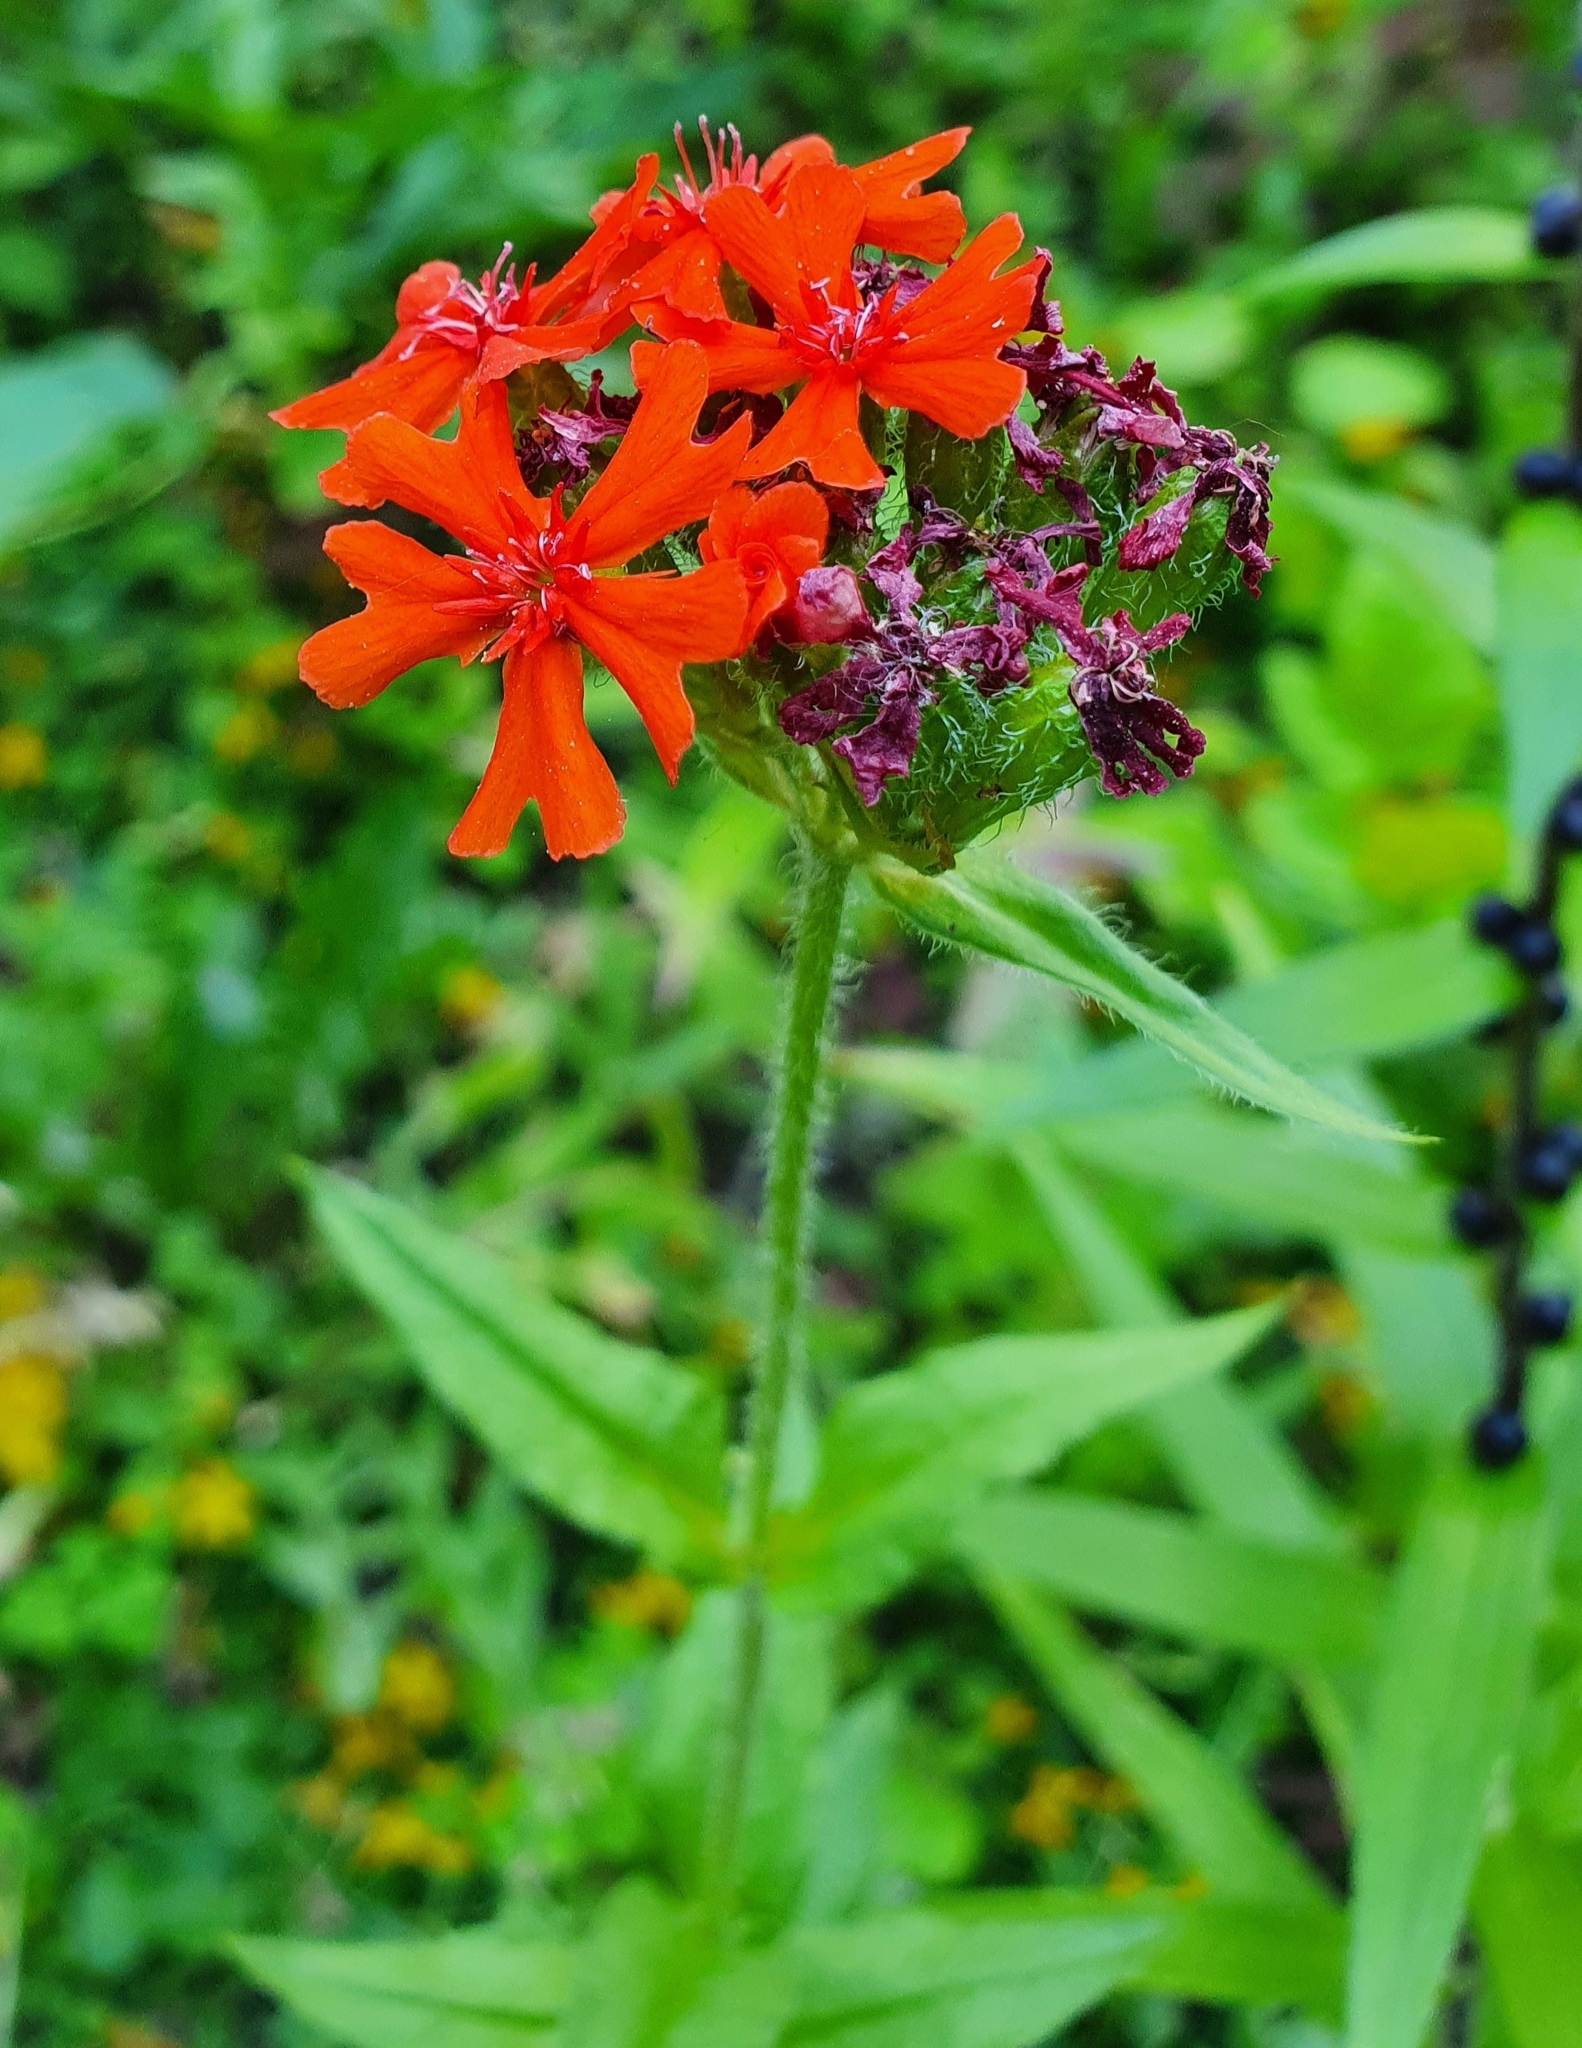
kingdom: Plantae
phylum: Tracheophyta
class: Magnoliopsida
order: Caryophyllales
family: Caryophyllaceae
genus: Silene
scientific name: Silene chalcedonica
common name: Maltese-cross
